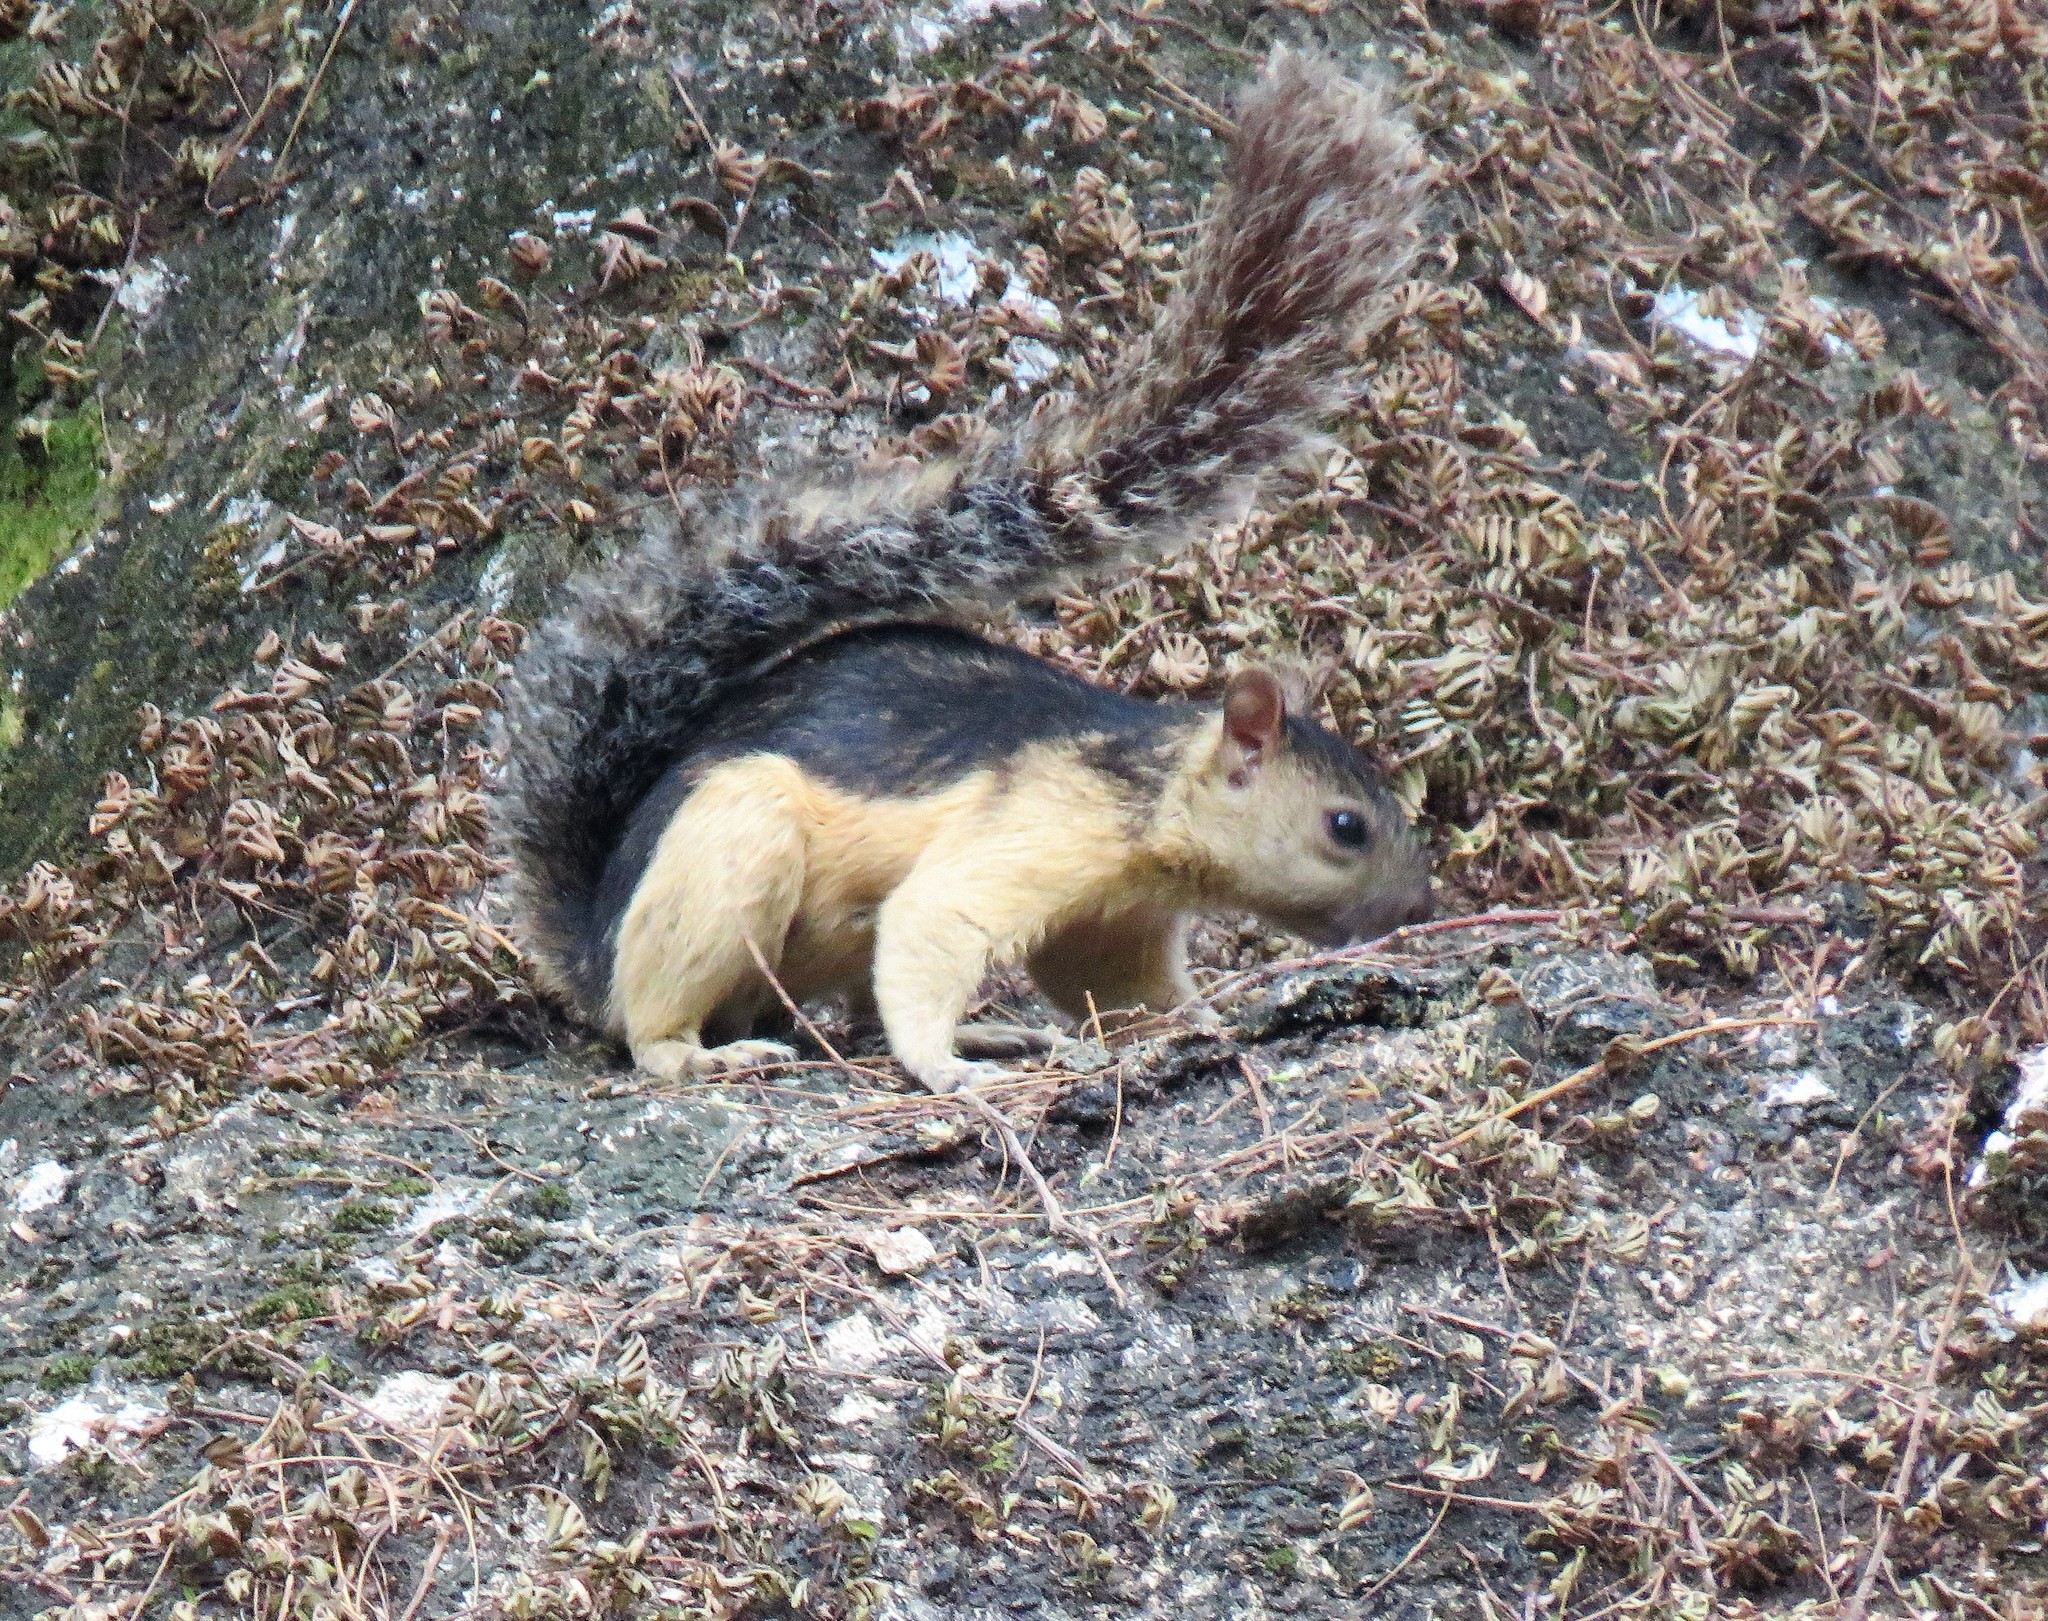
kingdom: Animalia
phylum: Chordata
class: Mammalia
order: Rodentia
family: Sciuridae
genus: Sciurus
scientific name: Sciurus variegatoides
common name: Variegated squirrel
